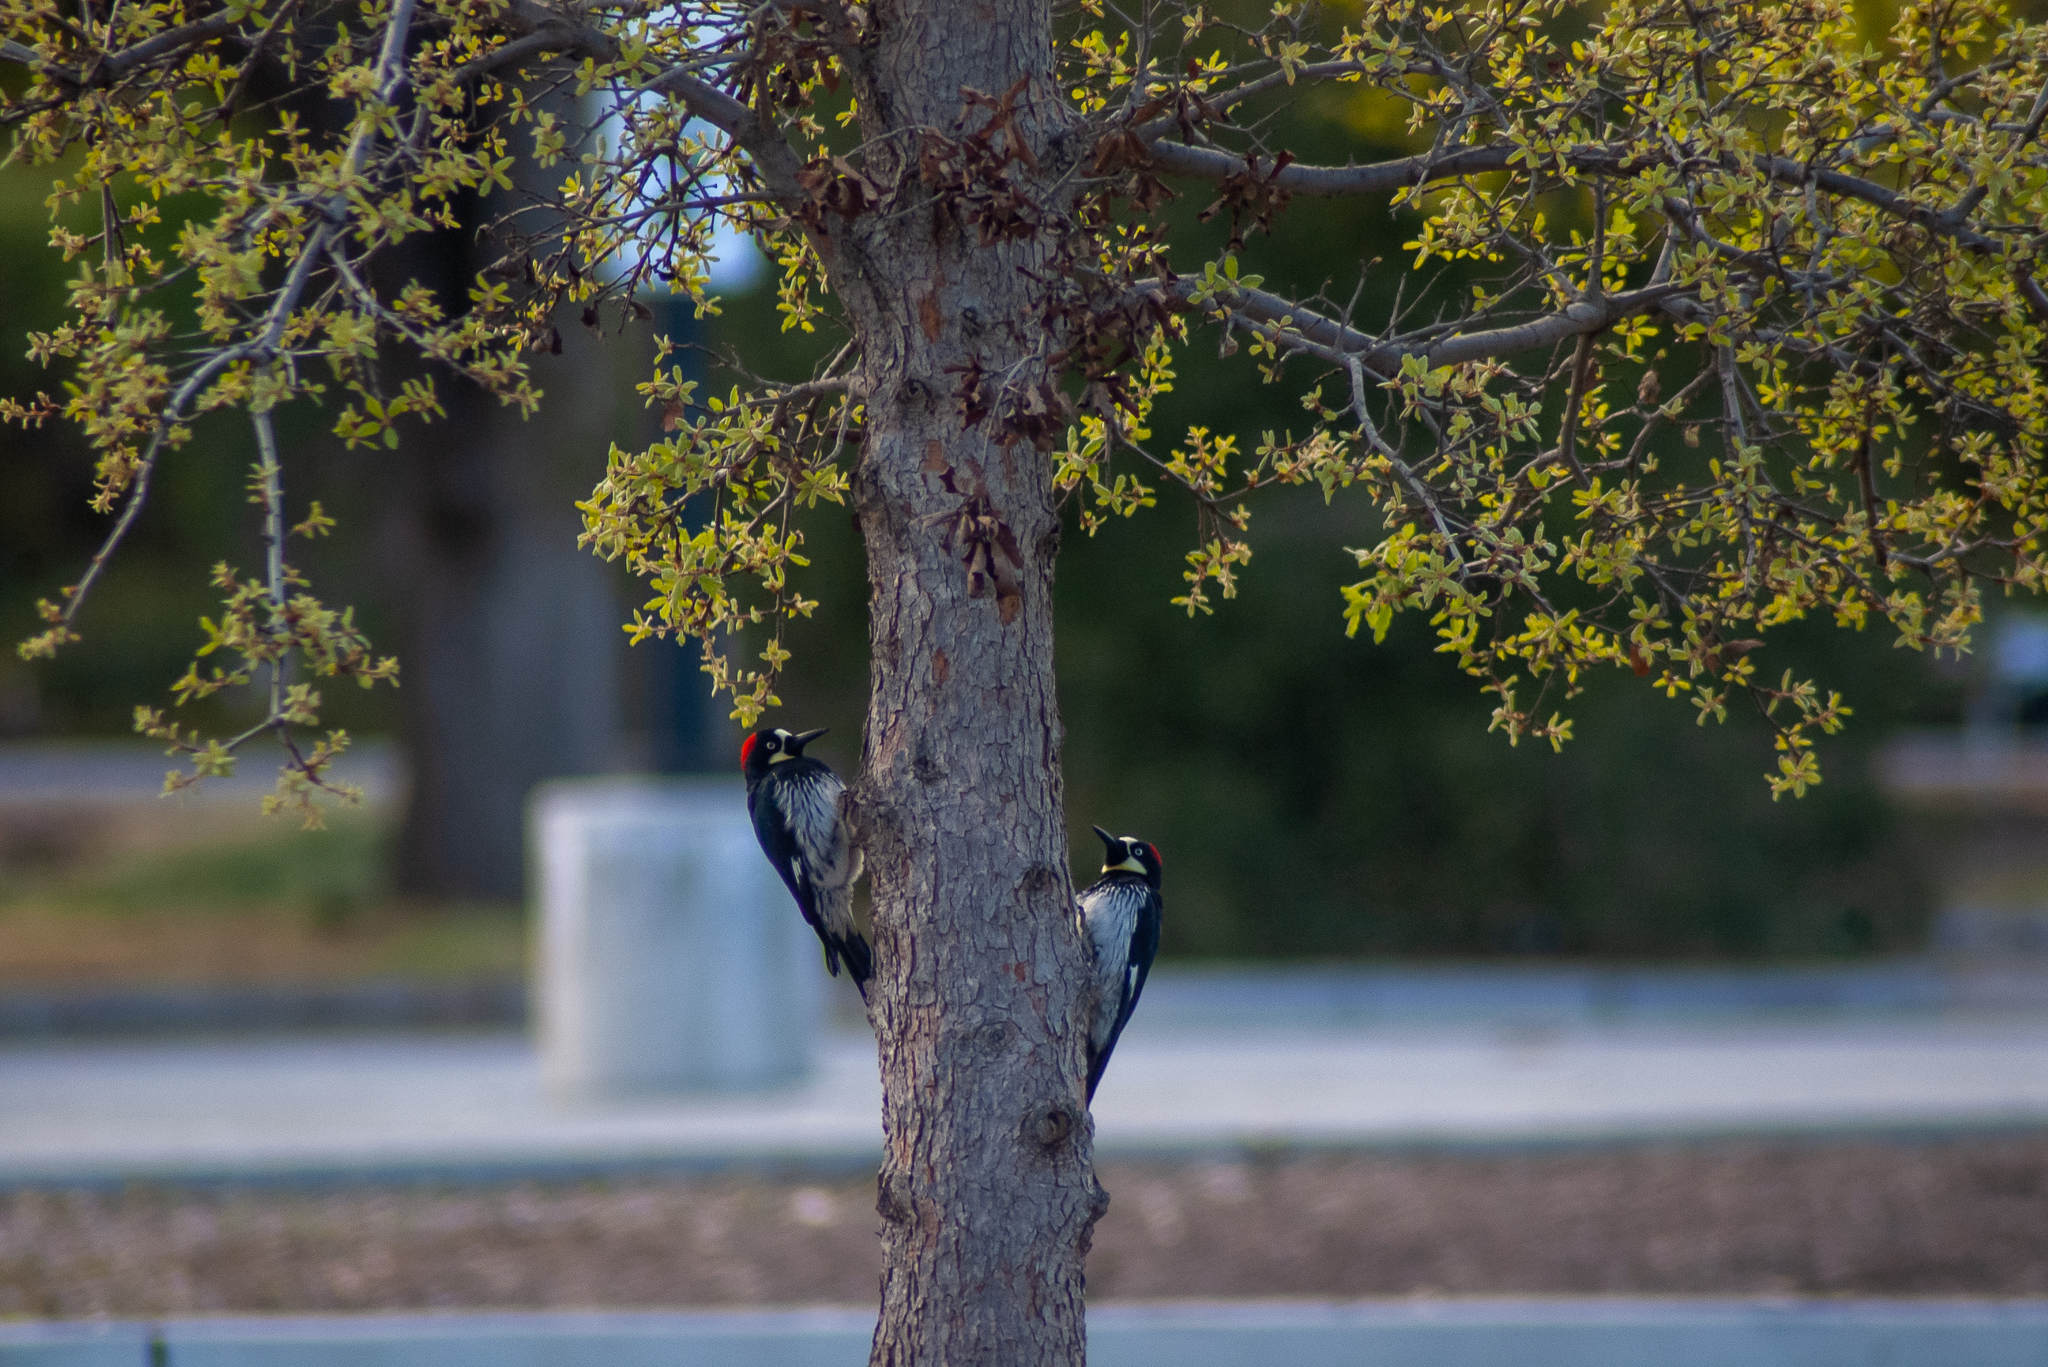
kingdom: Animalia
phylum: Chordata
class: Aves
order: Piciformes
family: Picidae
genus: Melanerpes
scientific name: Melanerpes formicivorus
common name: Acorn woodpecker
